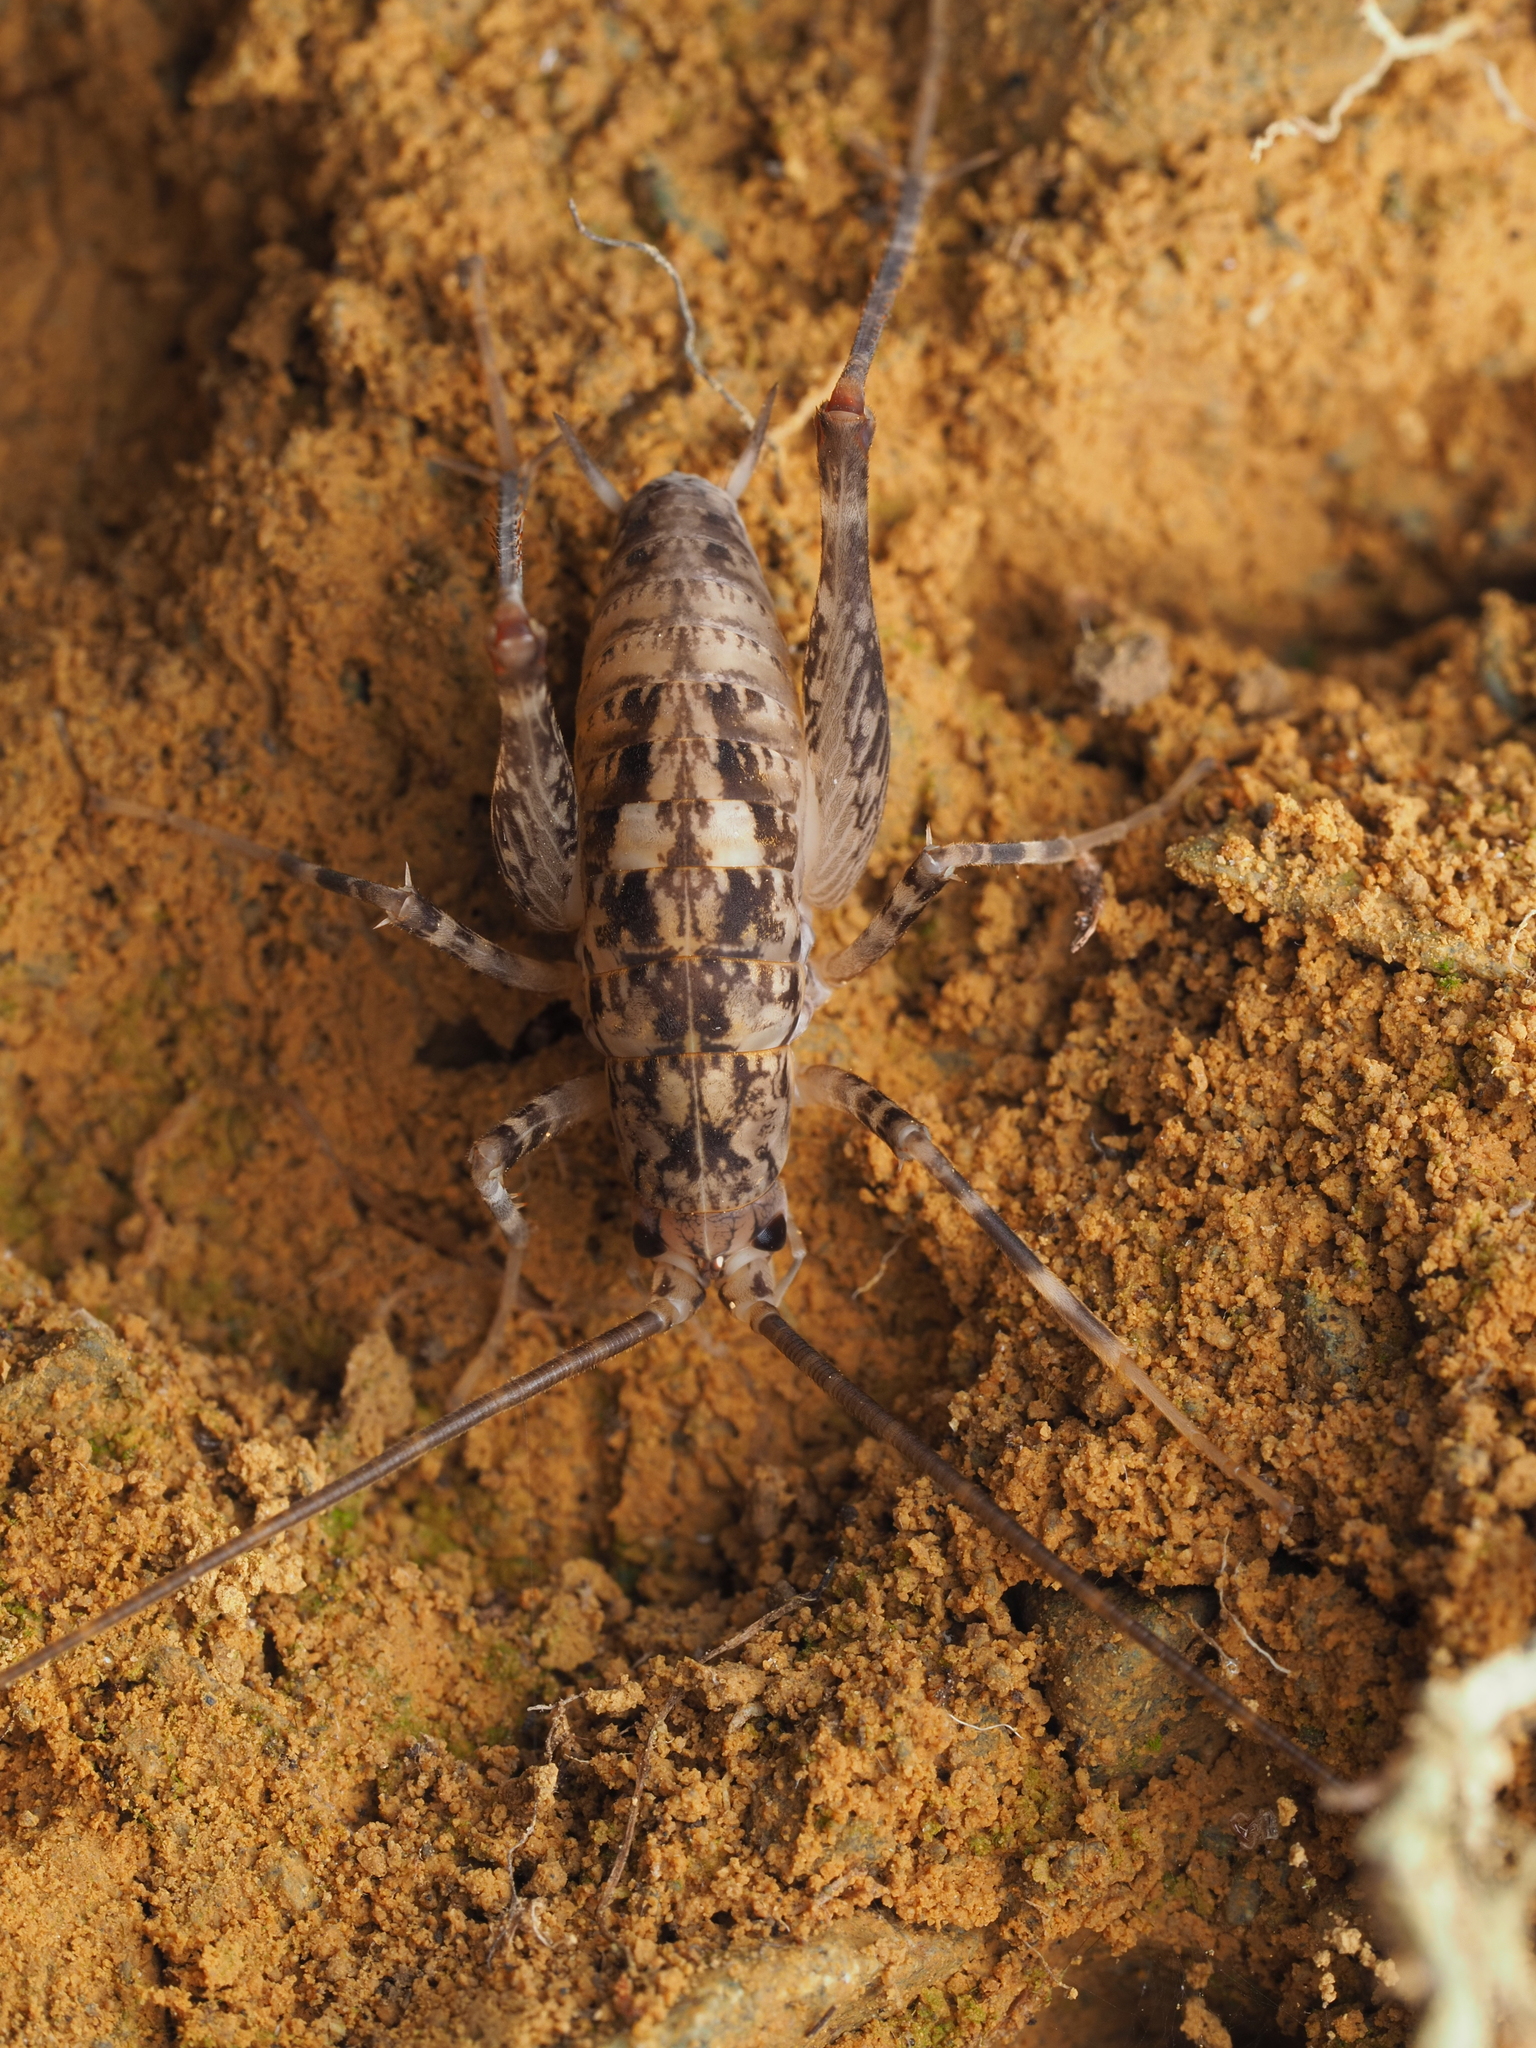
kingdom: Animalia
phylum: Arthropoda
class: Insecta
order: Orthoptera
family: Rhaphidophoridae
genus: Pleioplectron
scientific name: Pleioplectron simplex
